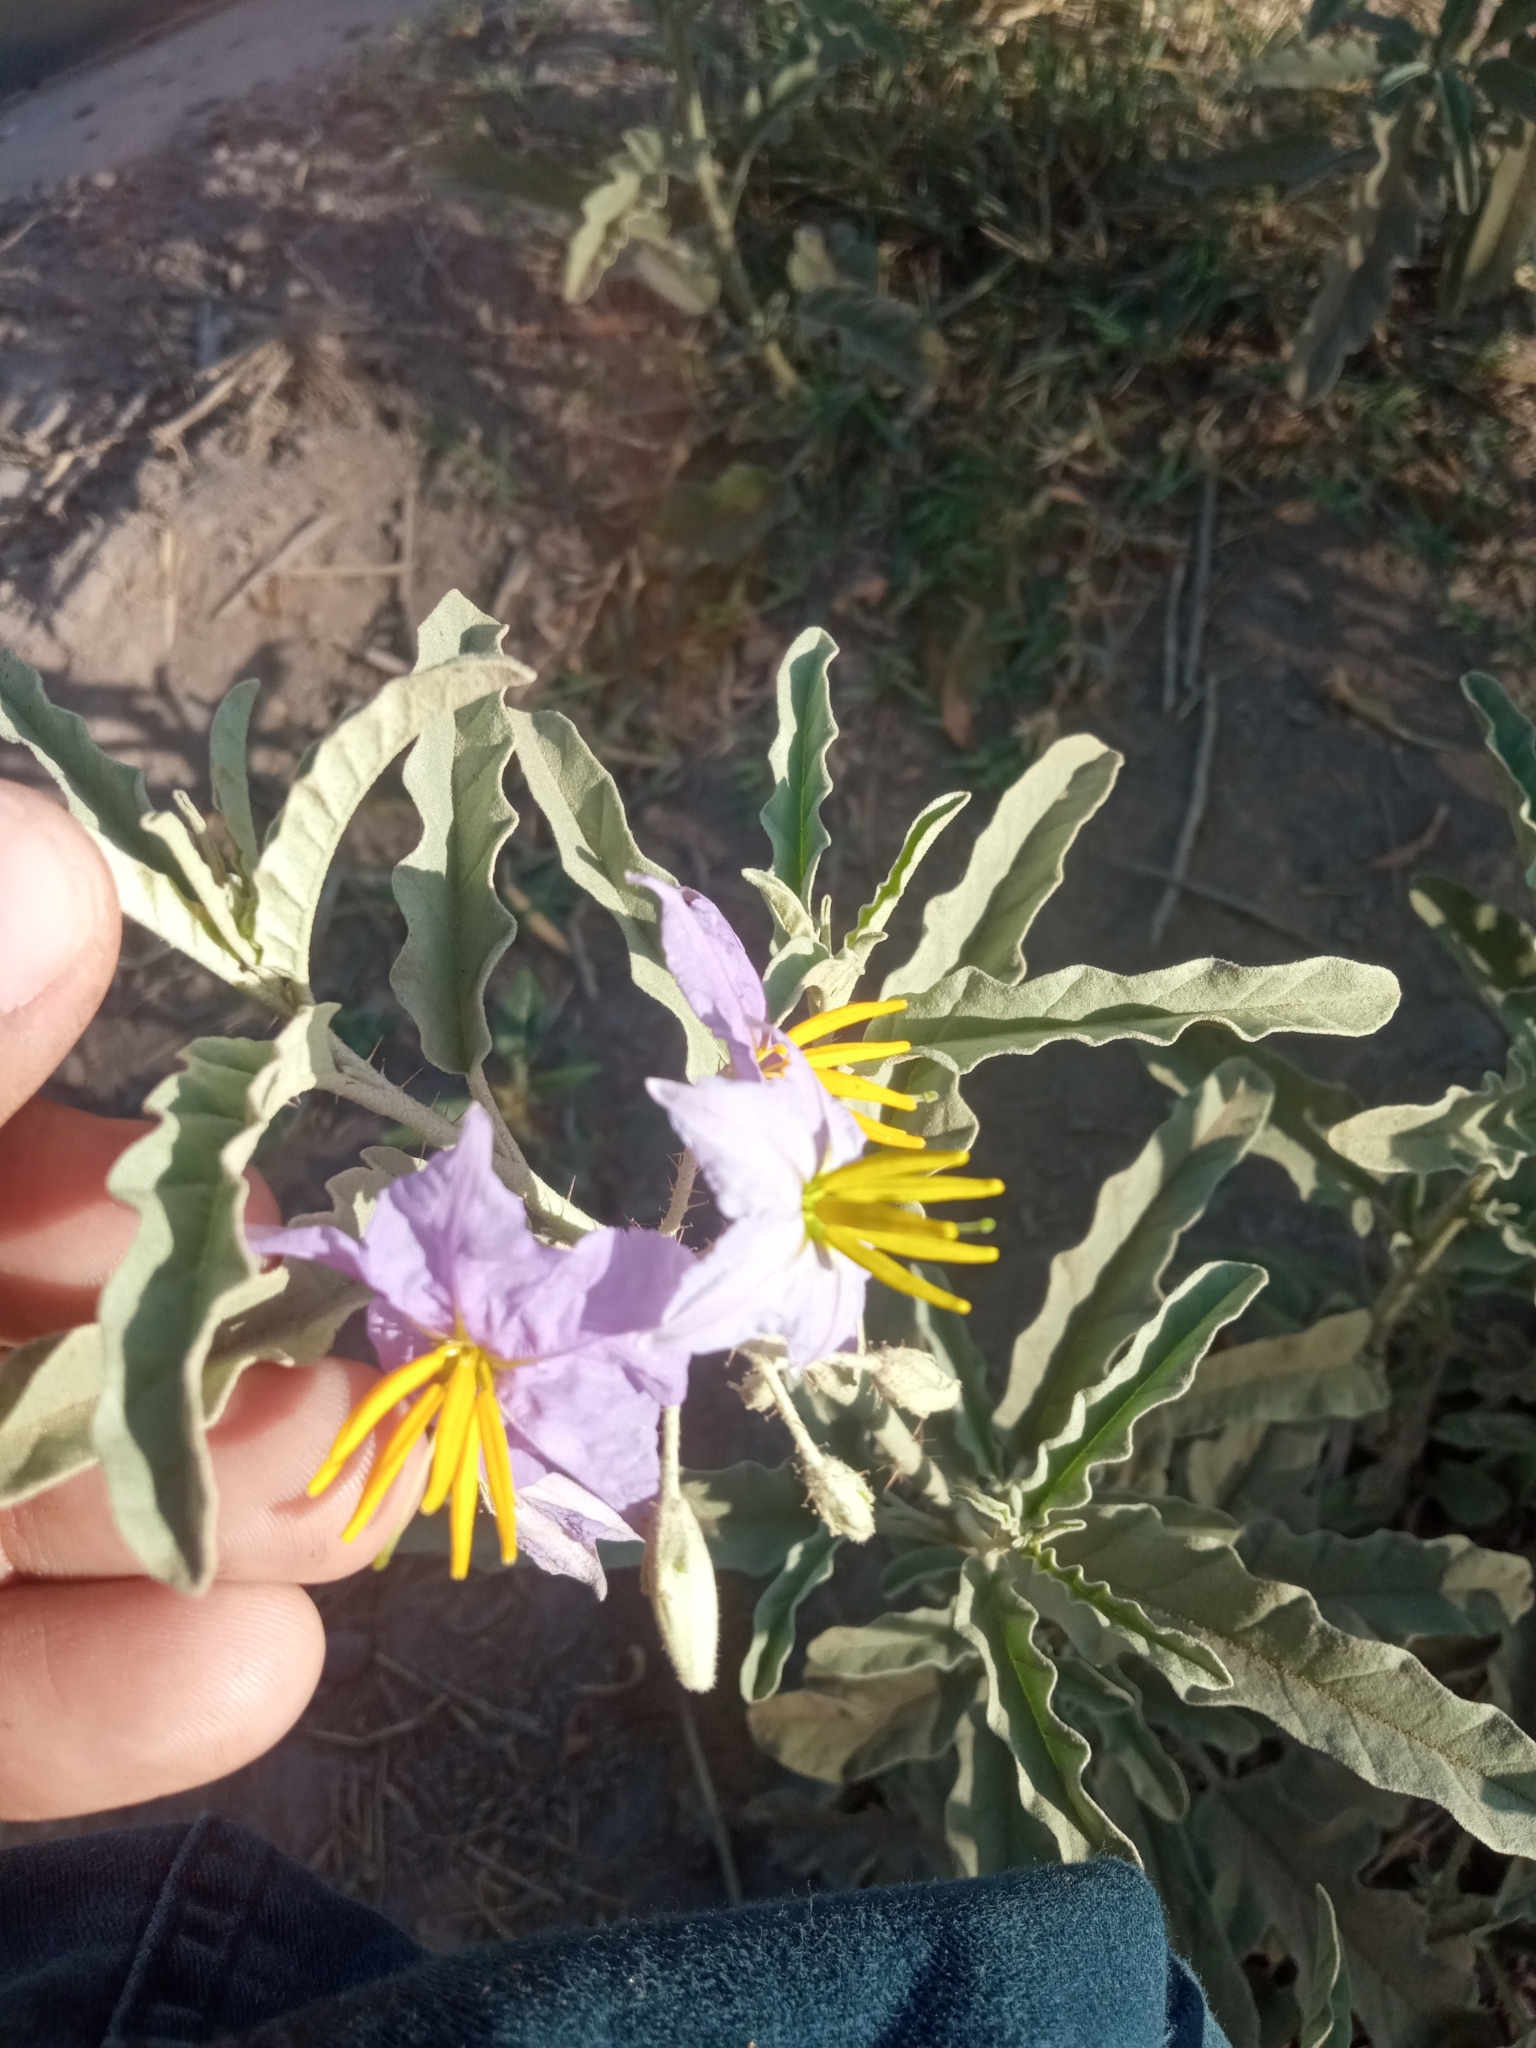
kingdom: Plantae
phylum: Tracheophyta
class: Magnoliopsida
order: Solanales
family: Solanaceae
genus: Solanum
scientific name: Solanum elaeagnifolium
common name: Silverleaf nightshade
